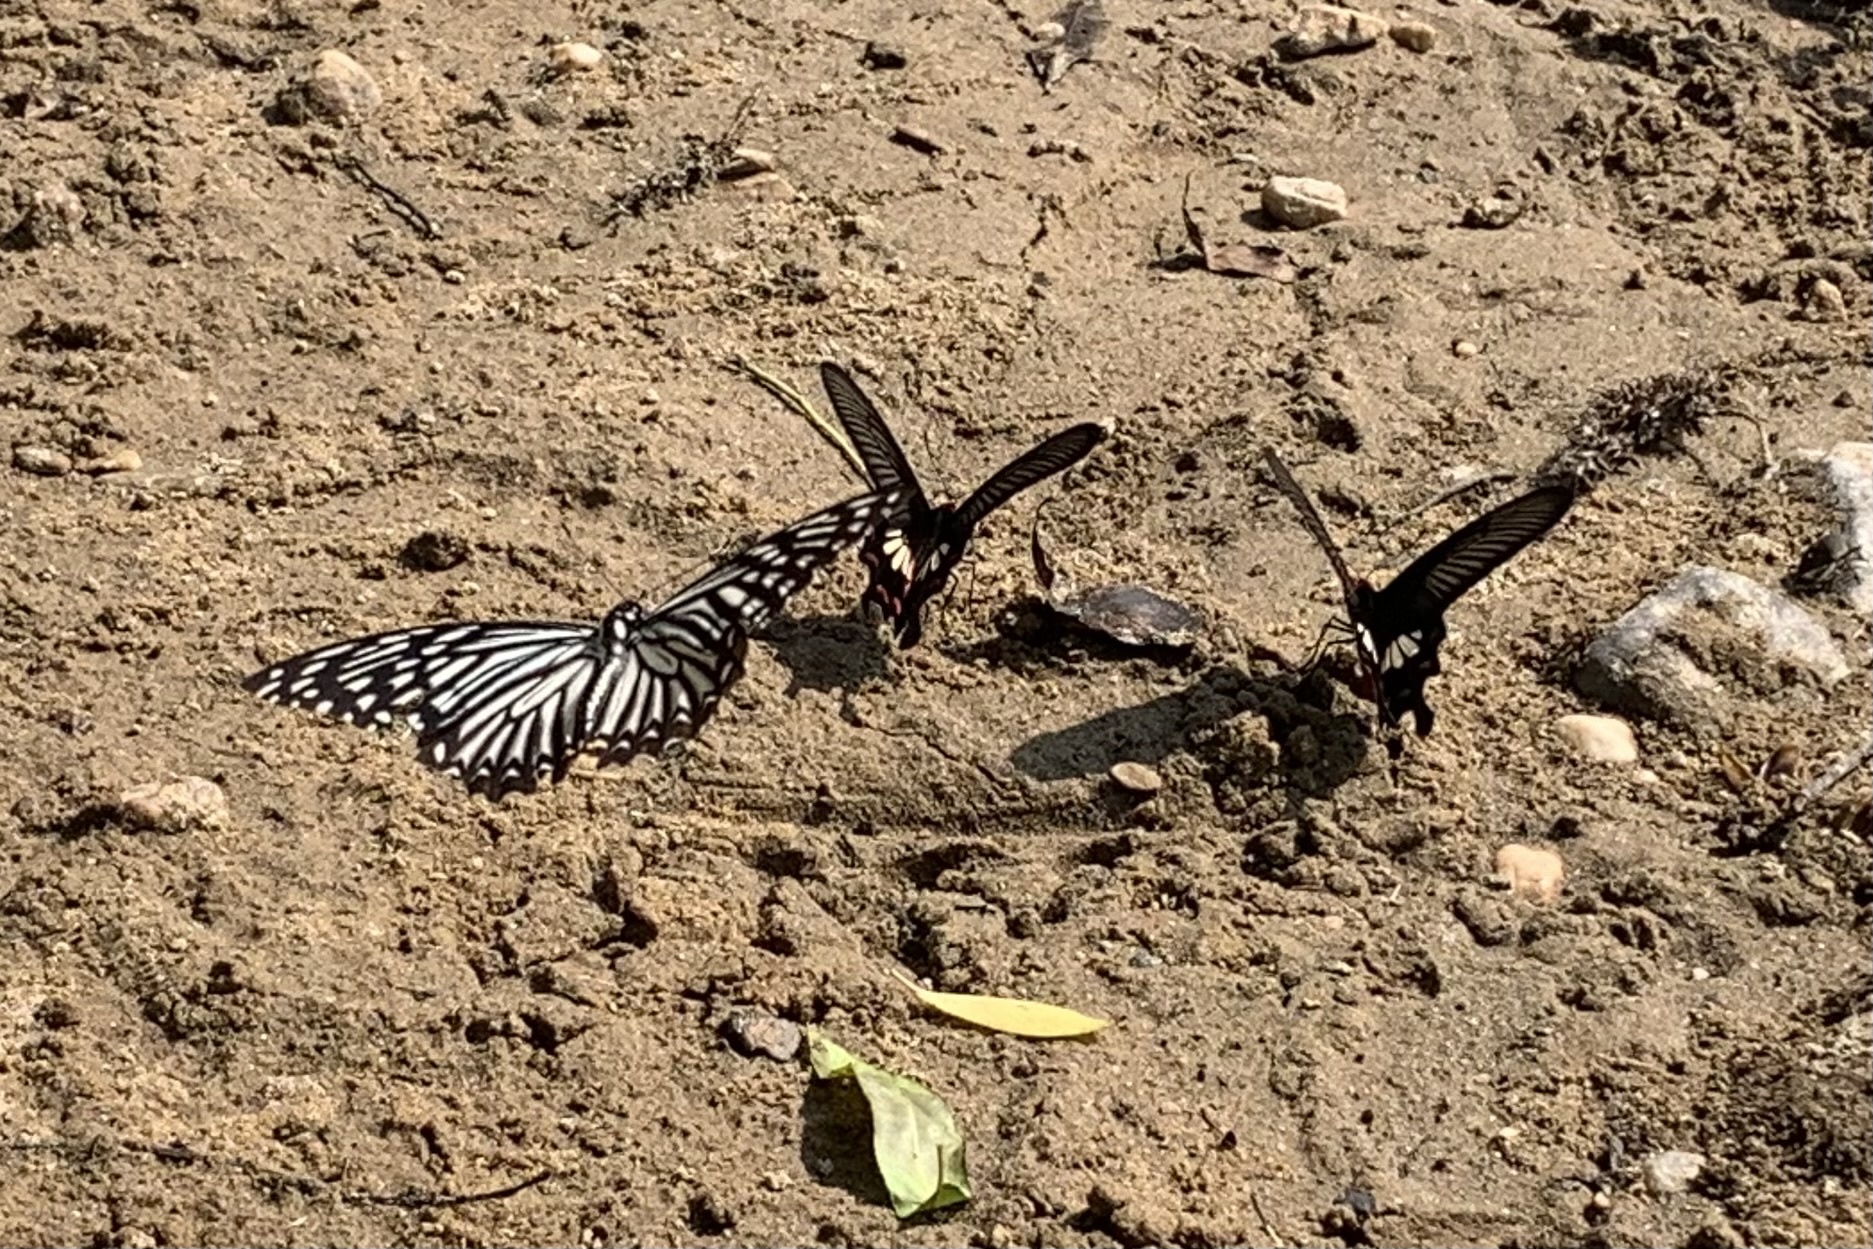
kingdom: Animalia
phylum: Arthropoda
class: Insecta
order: Lepidoptera
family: Papilionidae
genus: Chilasa
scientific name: Chilasa clytia
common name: Common mime
